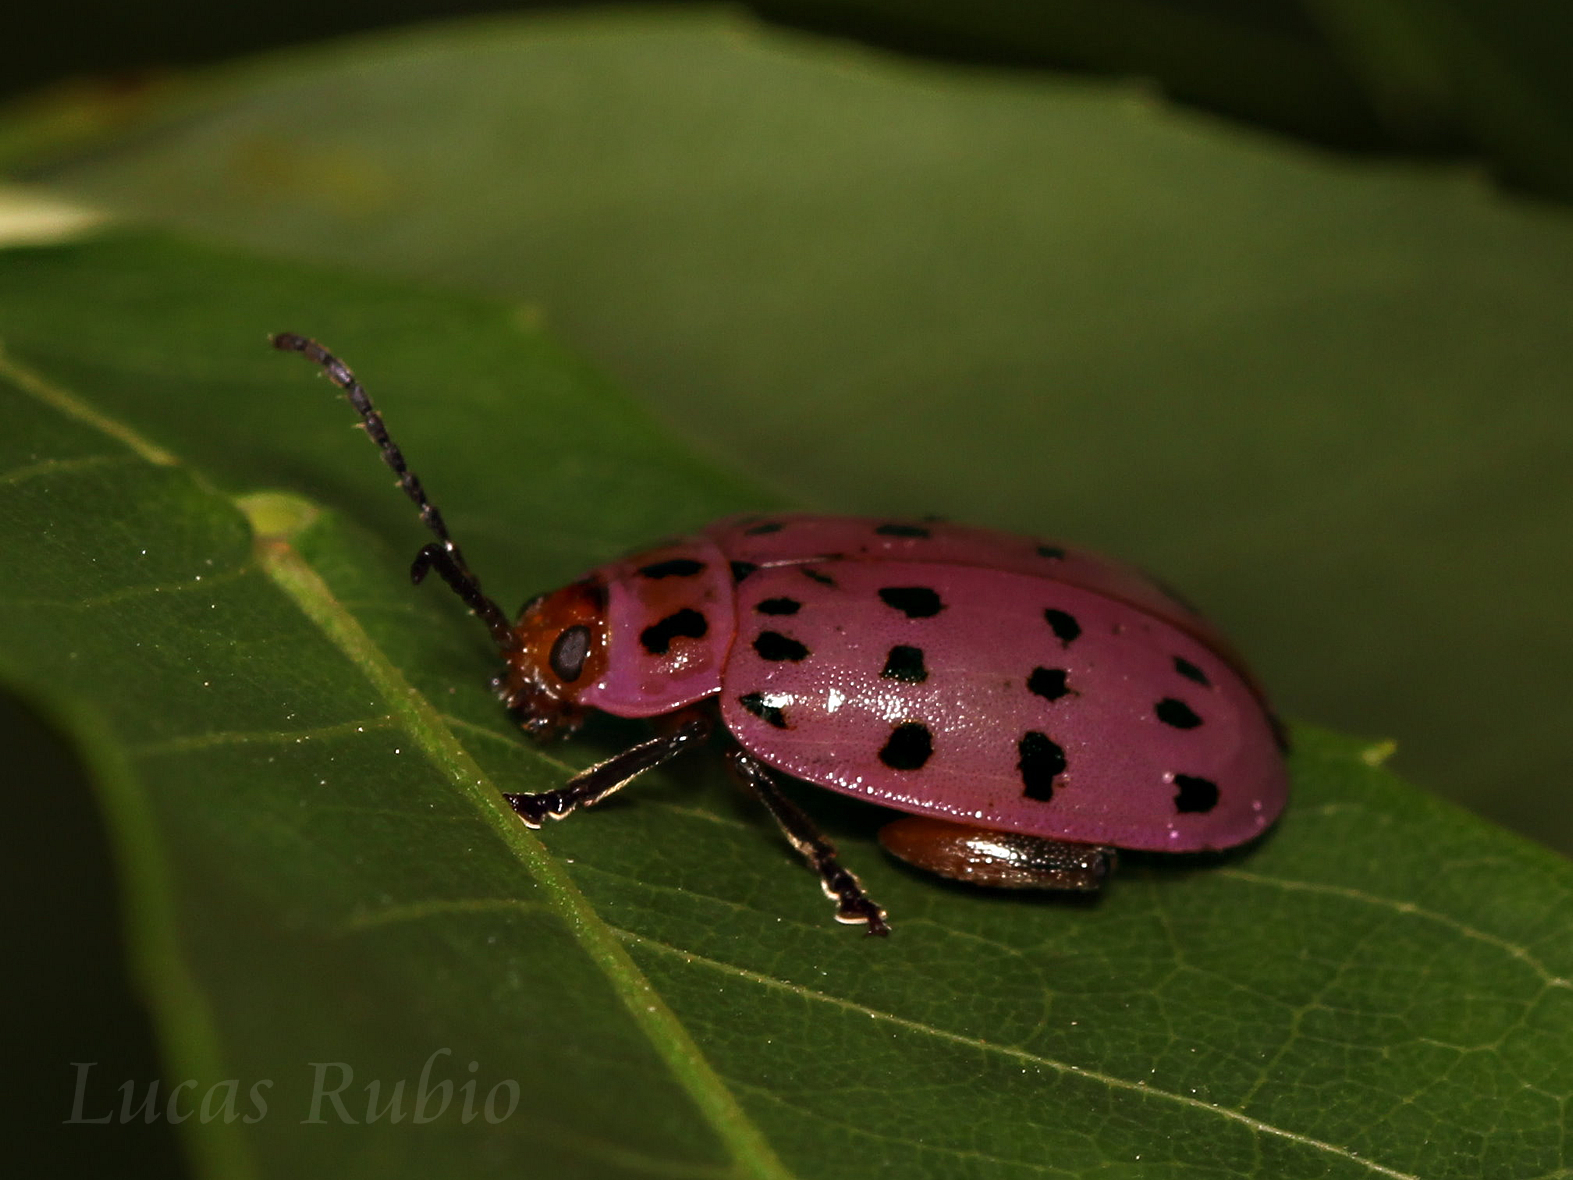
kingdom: Animalia
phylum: Arthropoda
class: Insecta
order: Coleoptera
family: Chrysomelidae
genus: Alagoasa
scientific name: Alagoasa
